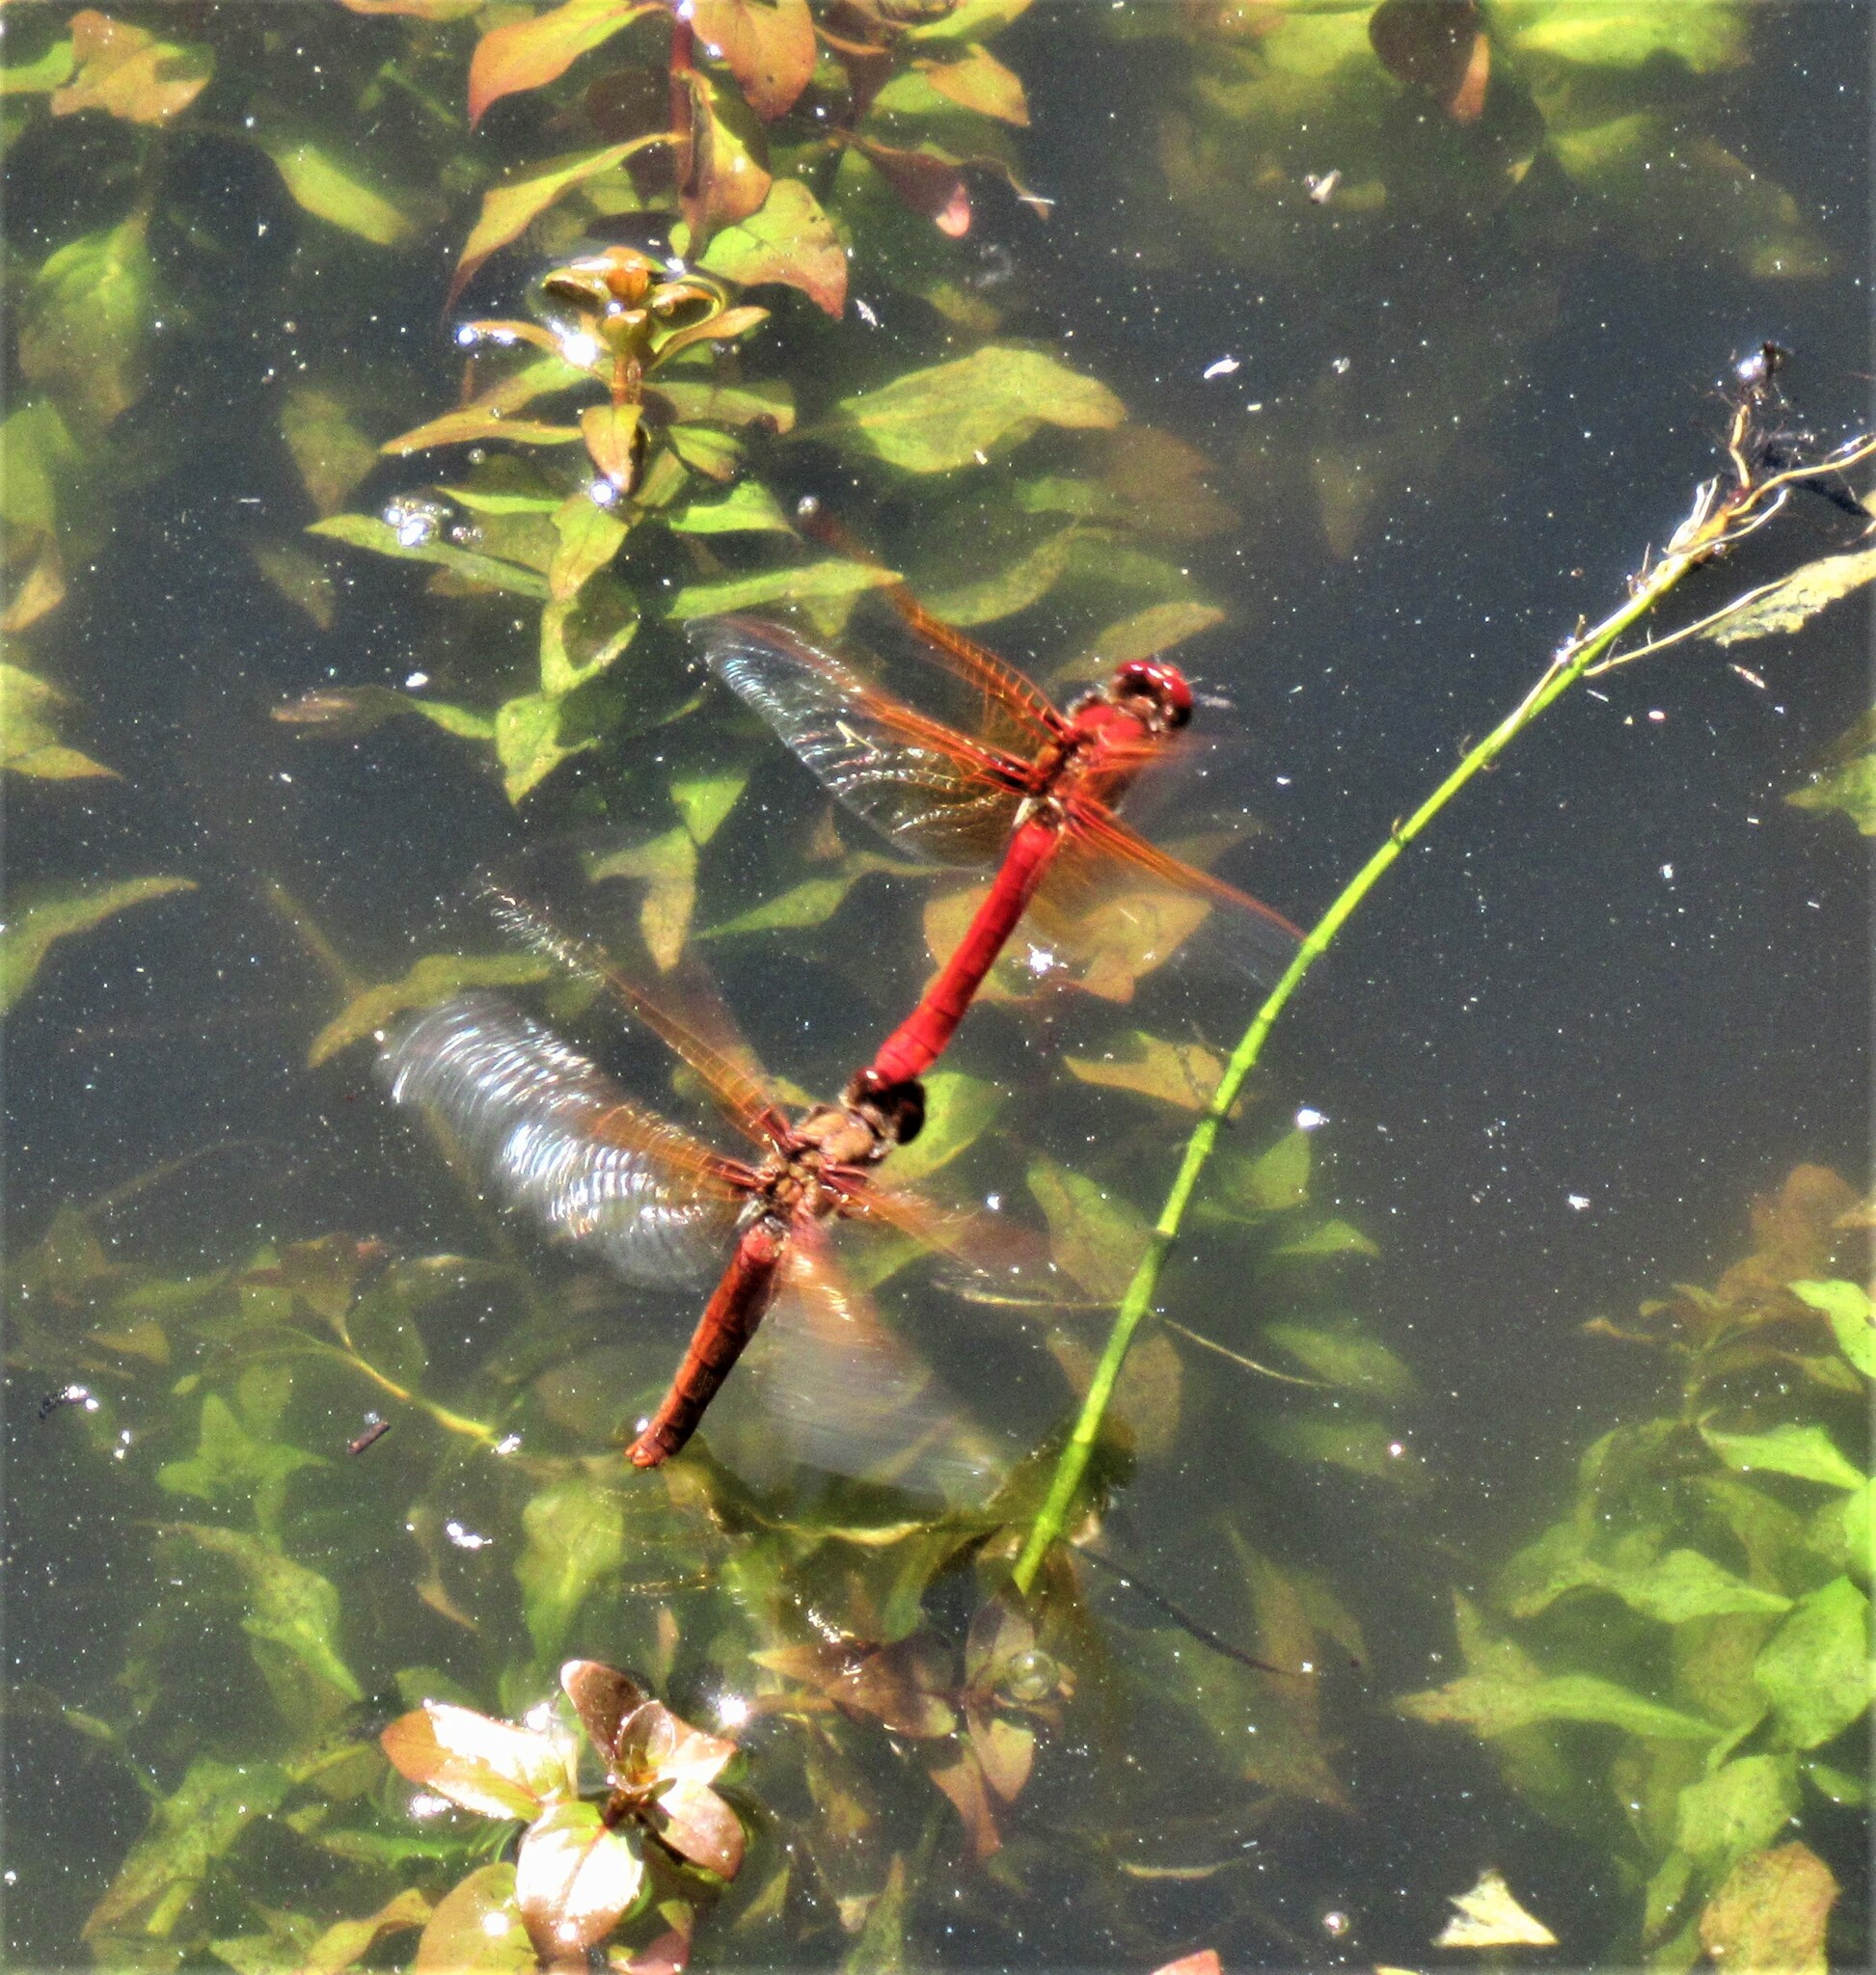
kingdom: Animalia
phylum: Arthropoda
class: Insecta
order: Odonata
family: Libellulidae
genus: Sympetrum
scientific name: Sympetrum illotum
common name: Cardinal meadowhawk
